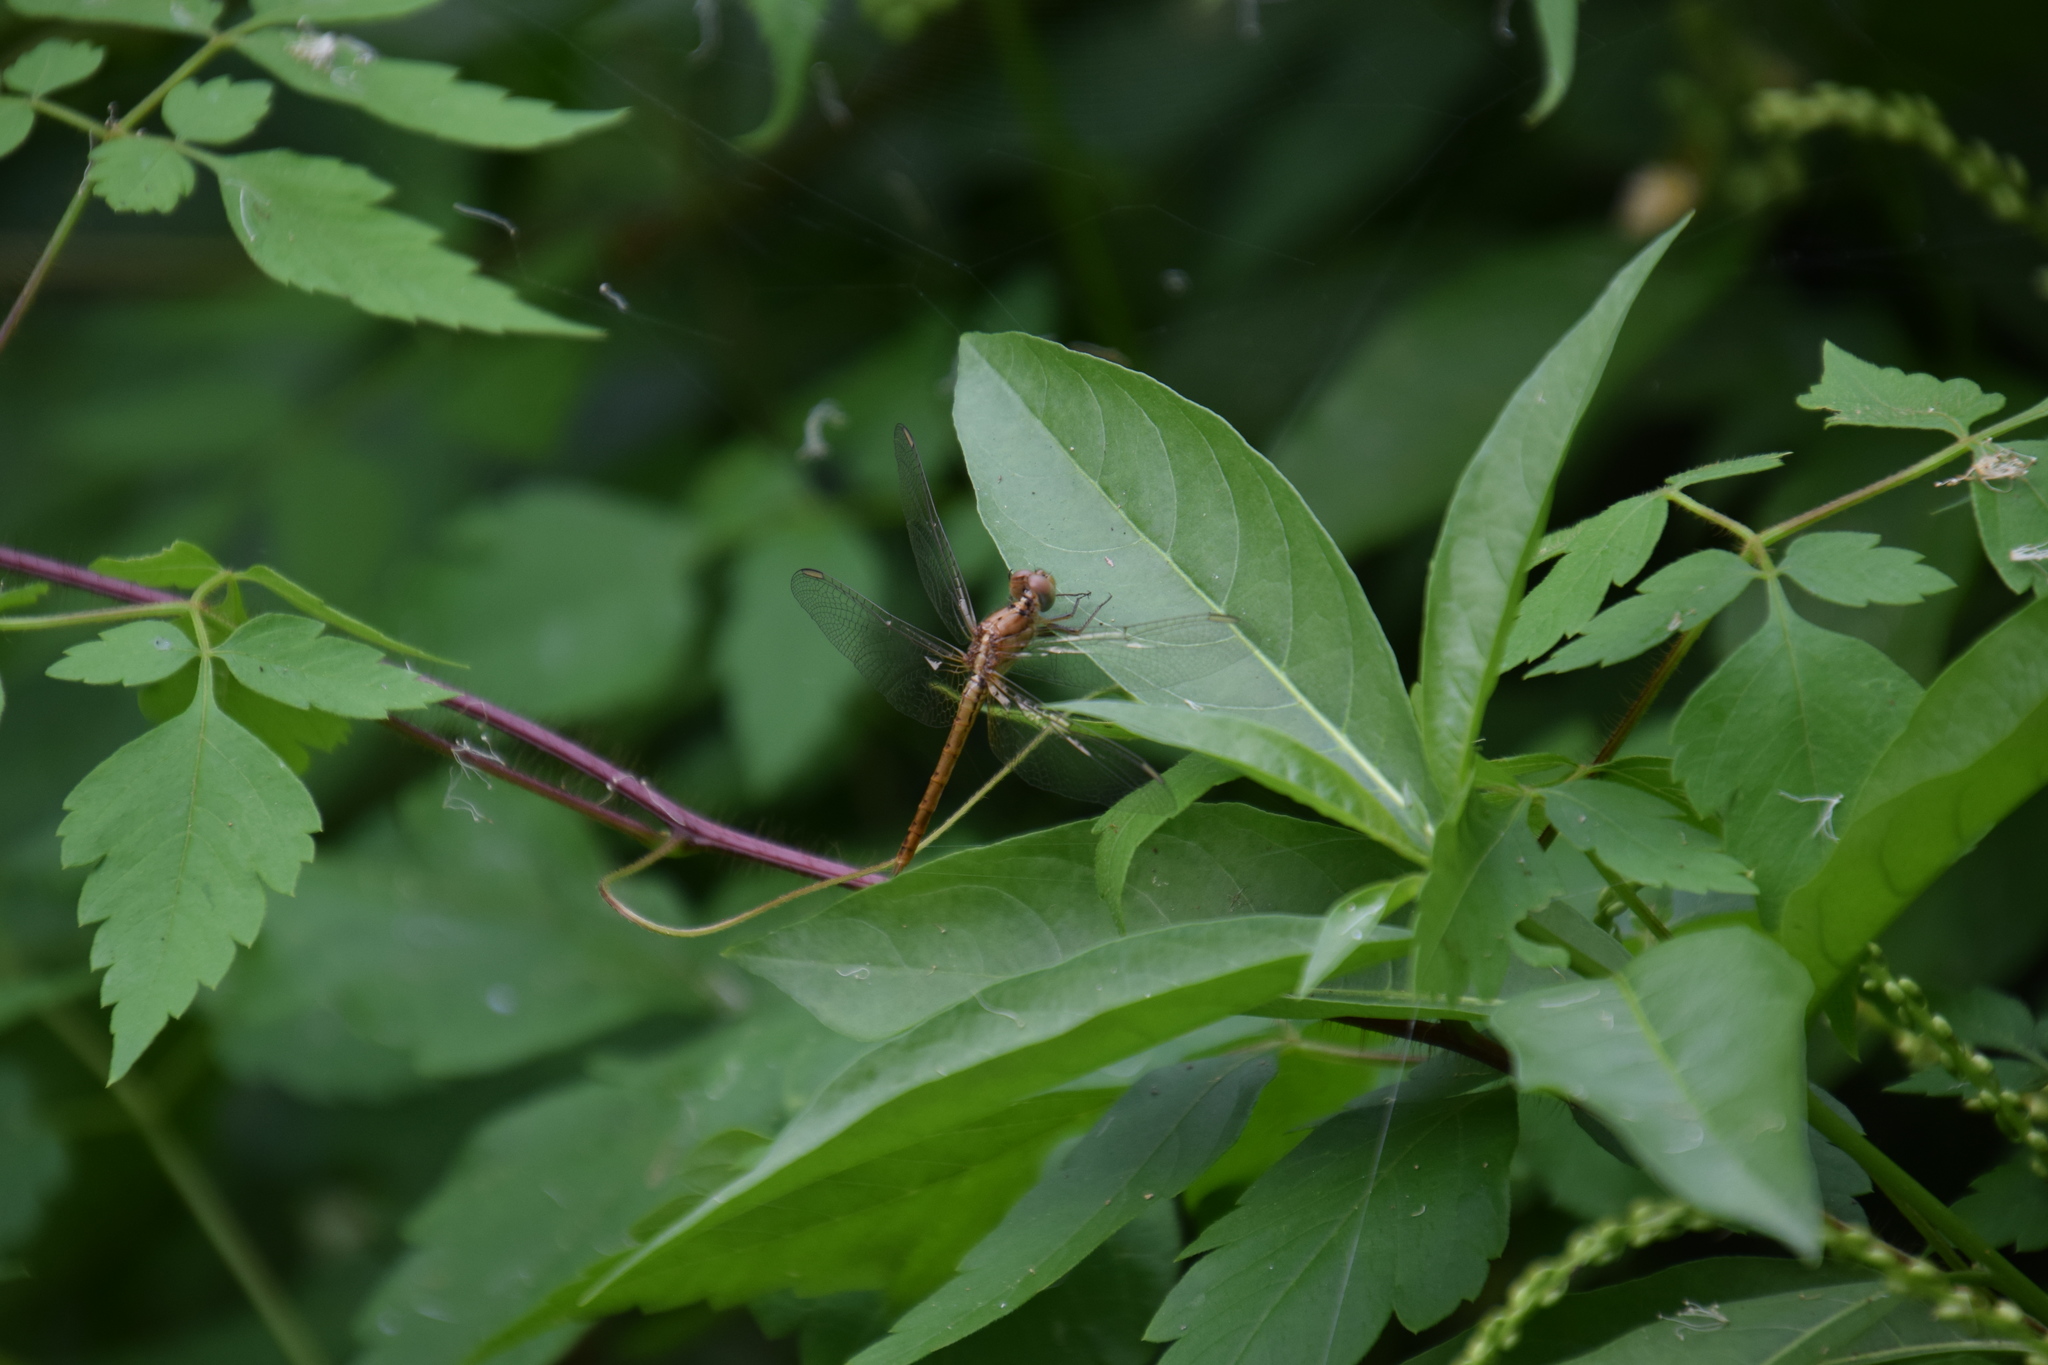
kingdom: Animalia
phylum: Arthropoda
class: Insecta
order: Odonata
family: Libellulidae
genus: Diplacodes
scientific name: Diplacodes haematodes
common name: Scarlet percher
